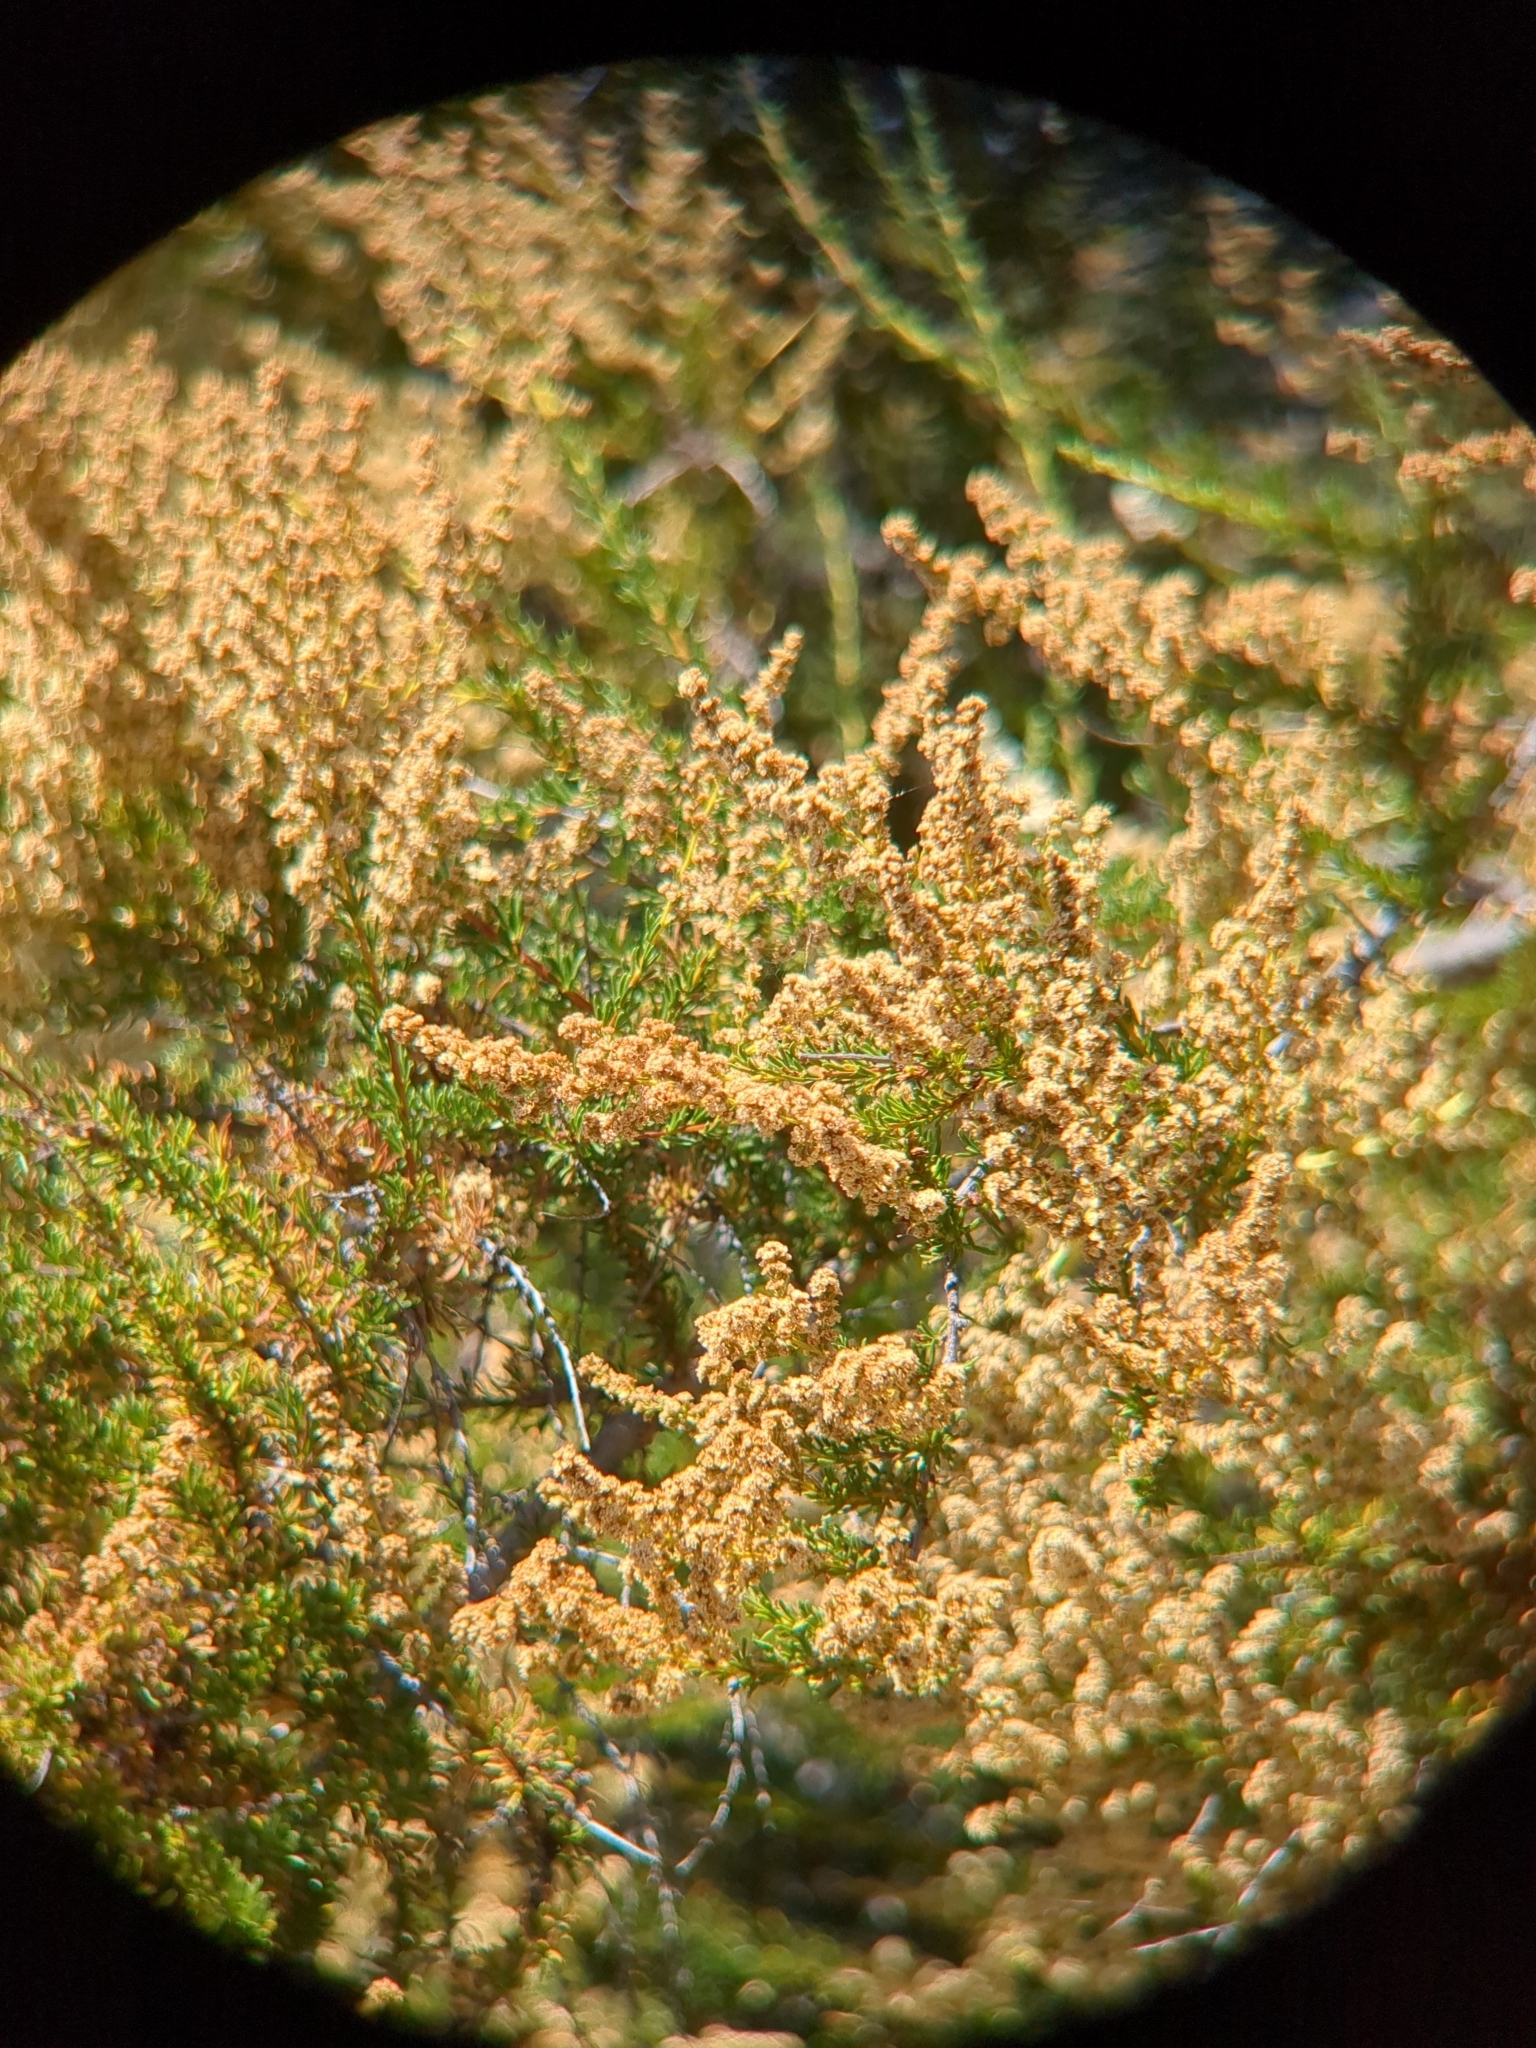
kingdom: Plantae
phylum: Tracheophyta
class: Magnoliopsida
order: Rosales
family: Rosaceae
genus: Adenostoma
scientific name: Adenostoma fasciculatum
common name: Chamise
